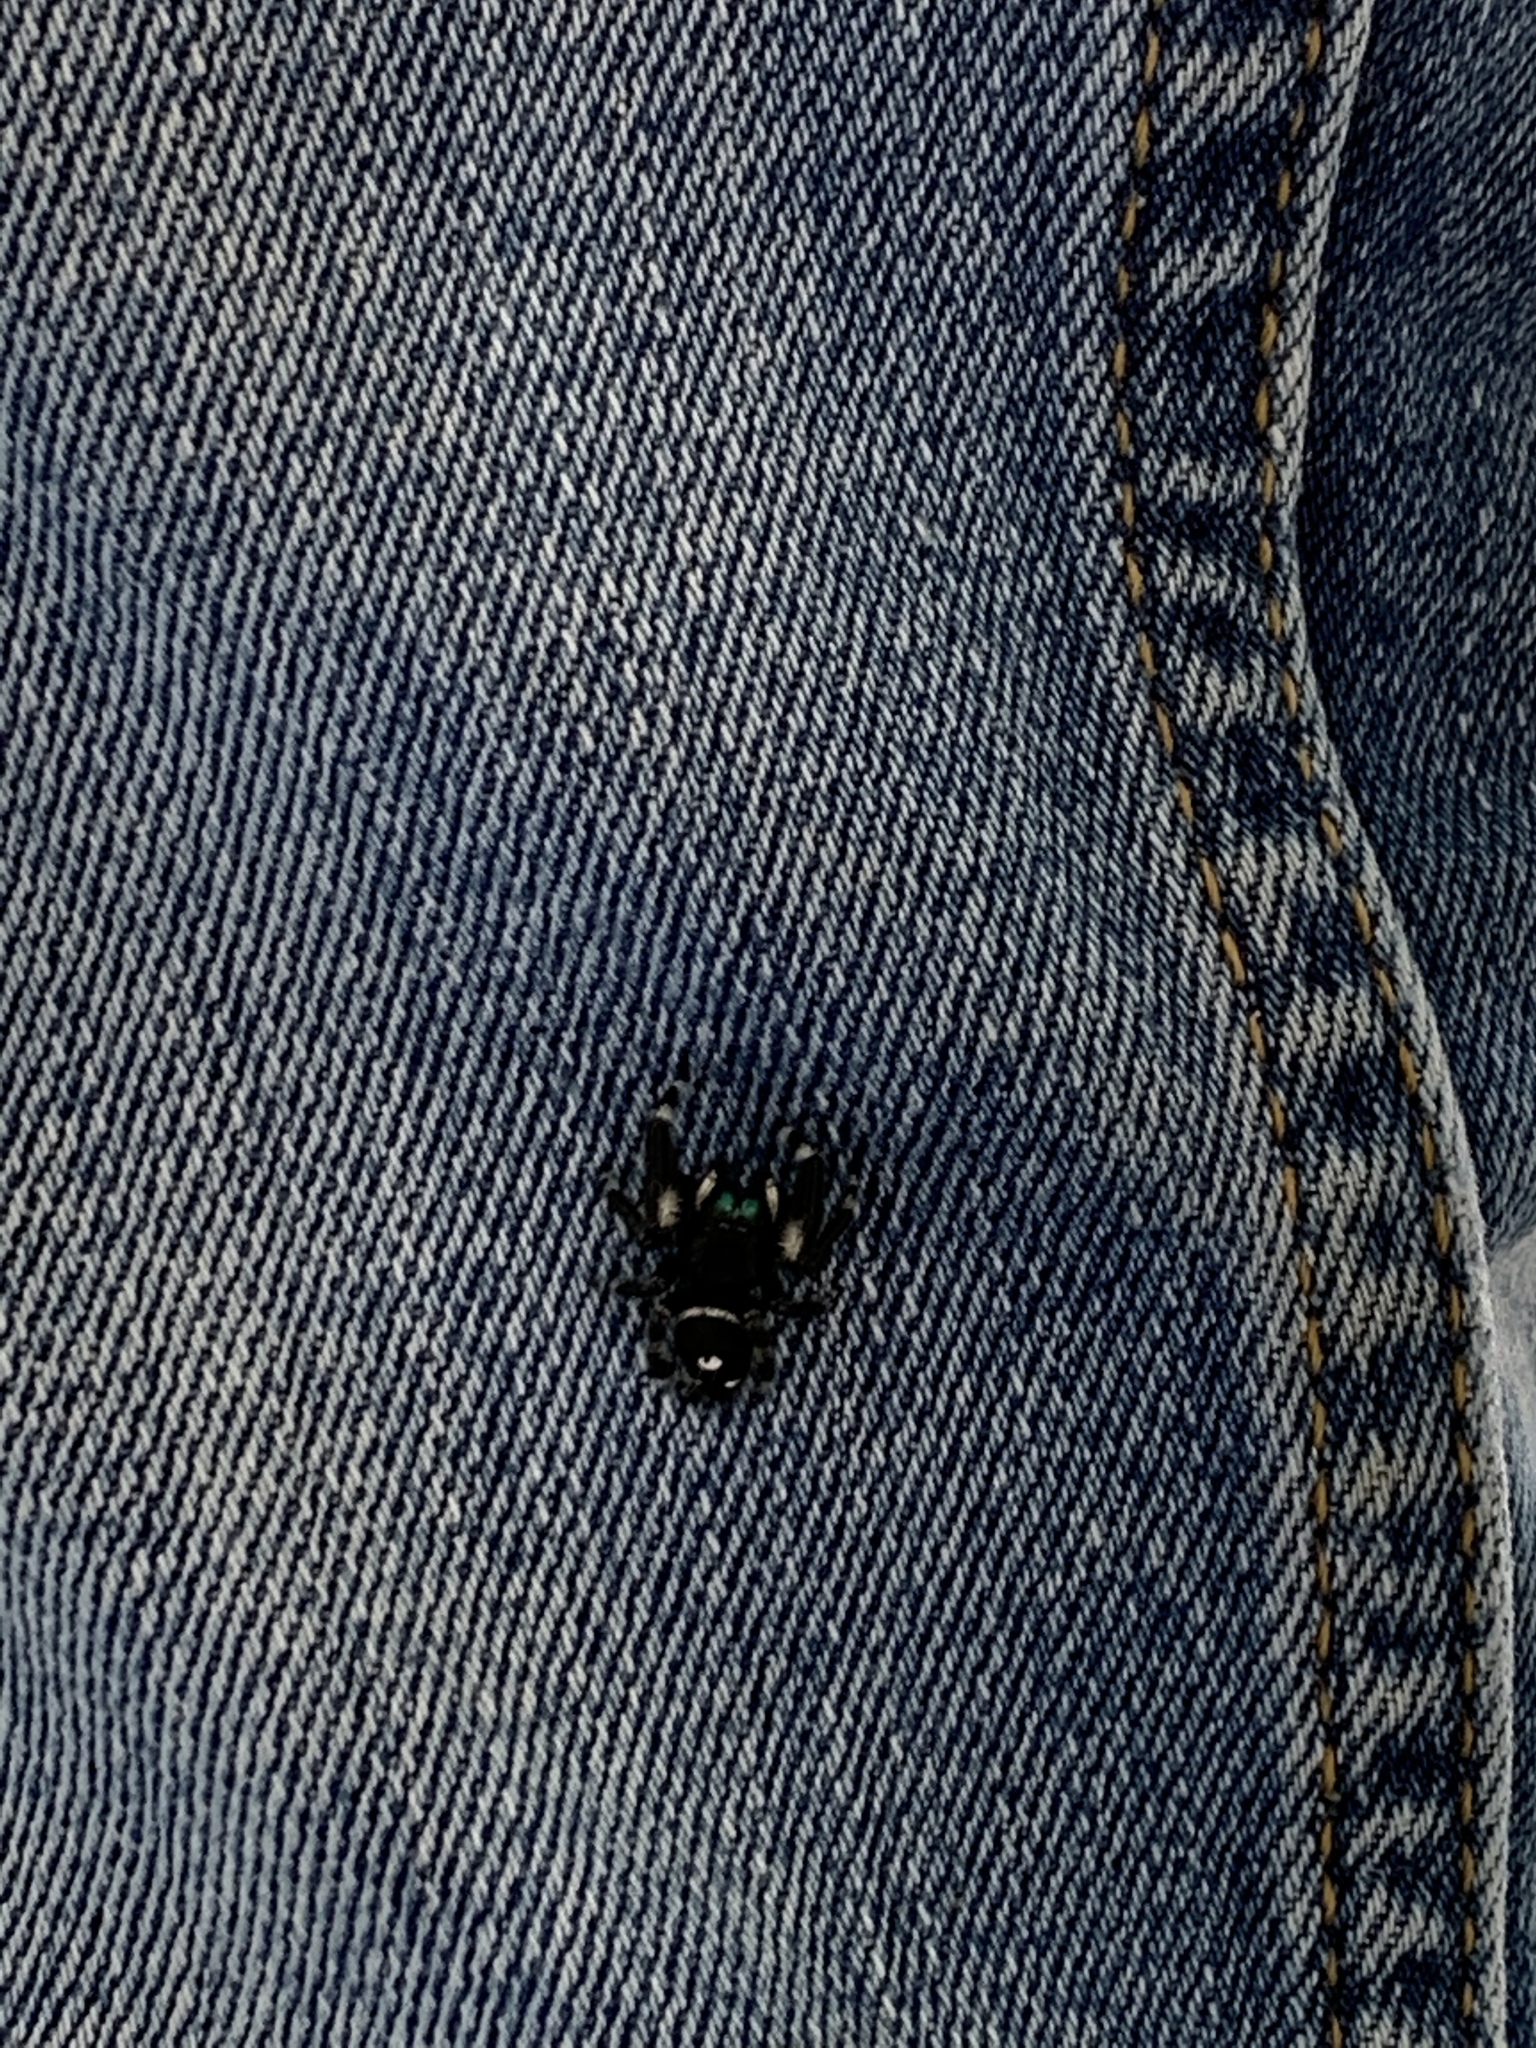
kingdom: Animalia
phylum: Arthropoda
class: Arachnida
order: Araneae
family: Salticidae
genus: Phidippus
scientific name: Phidippus audax
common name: Bold jumper
